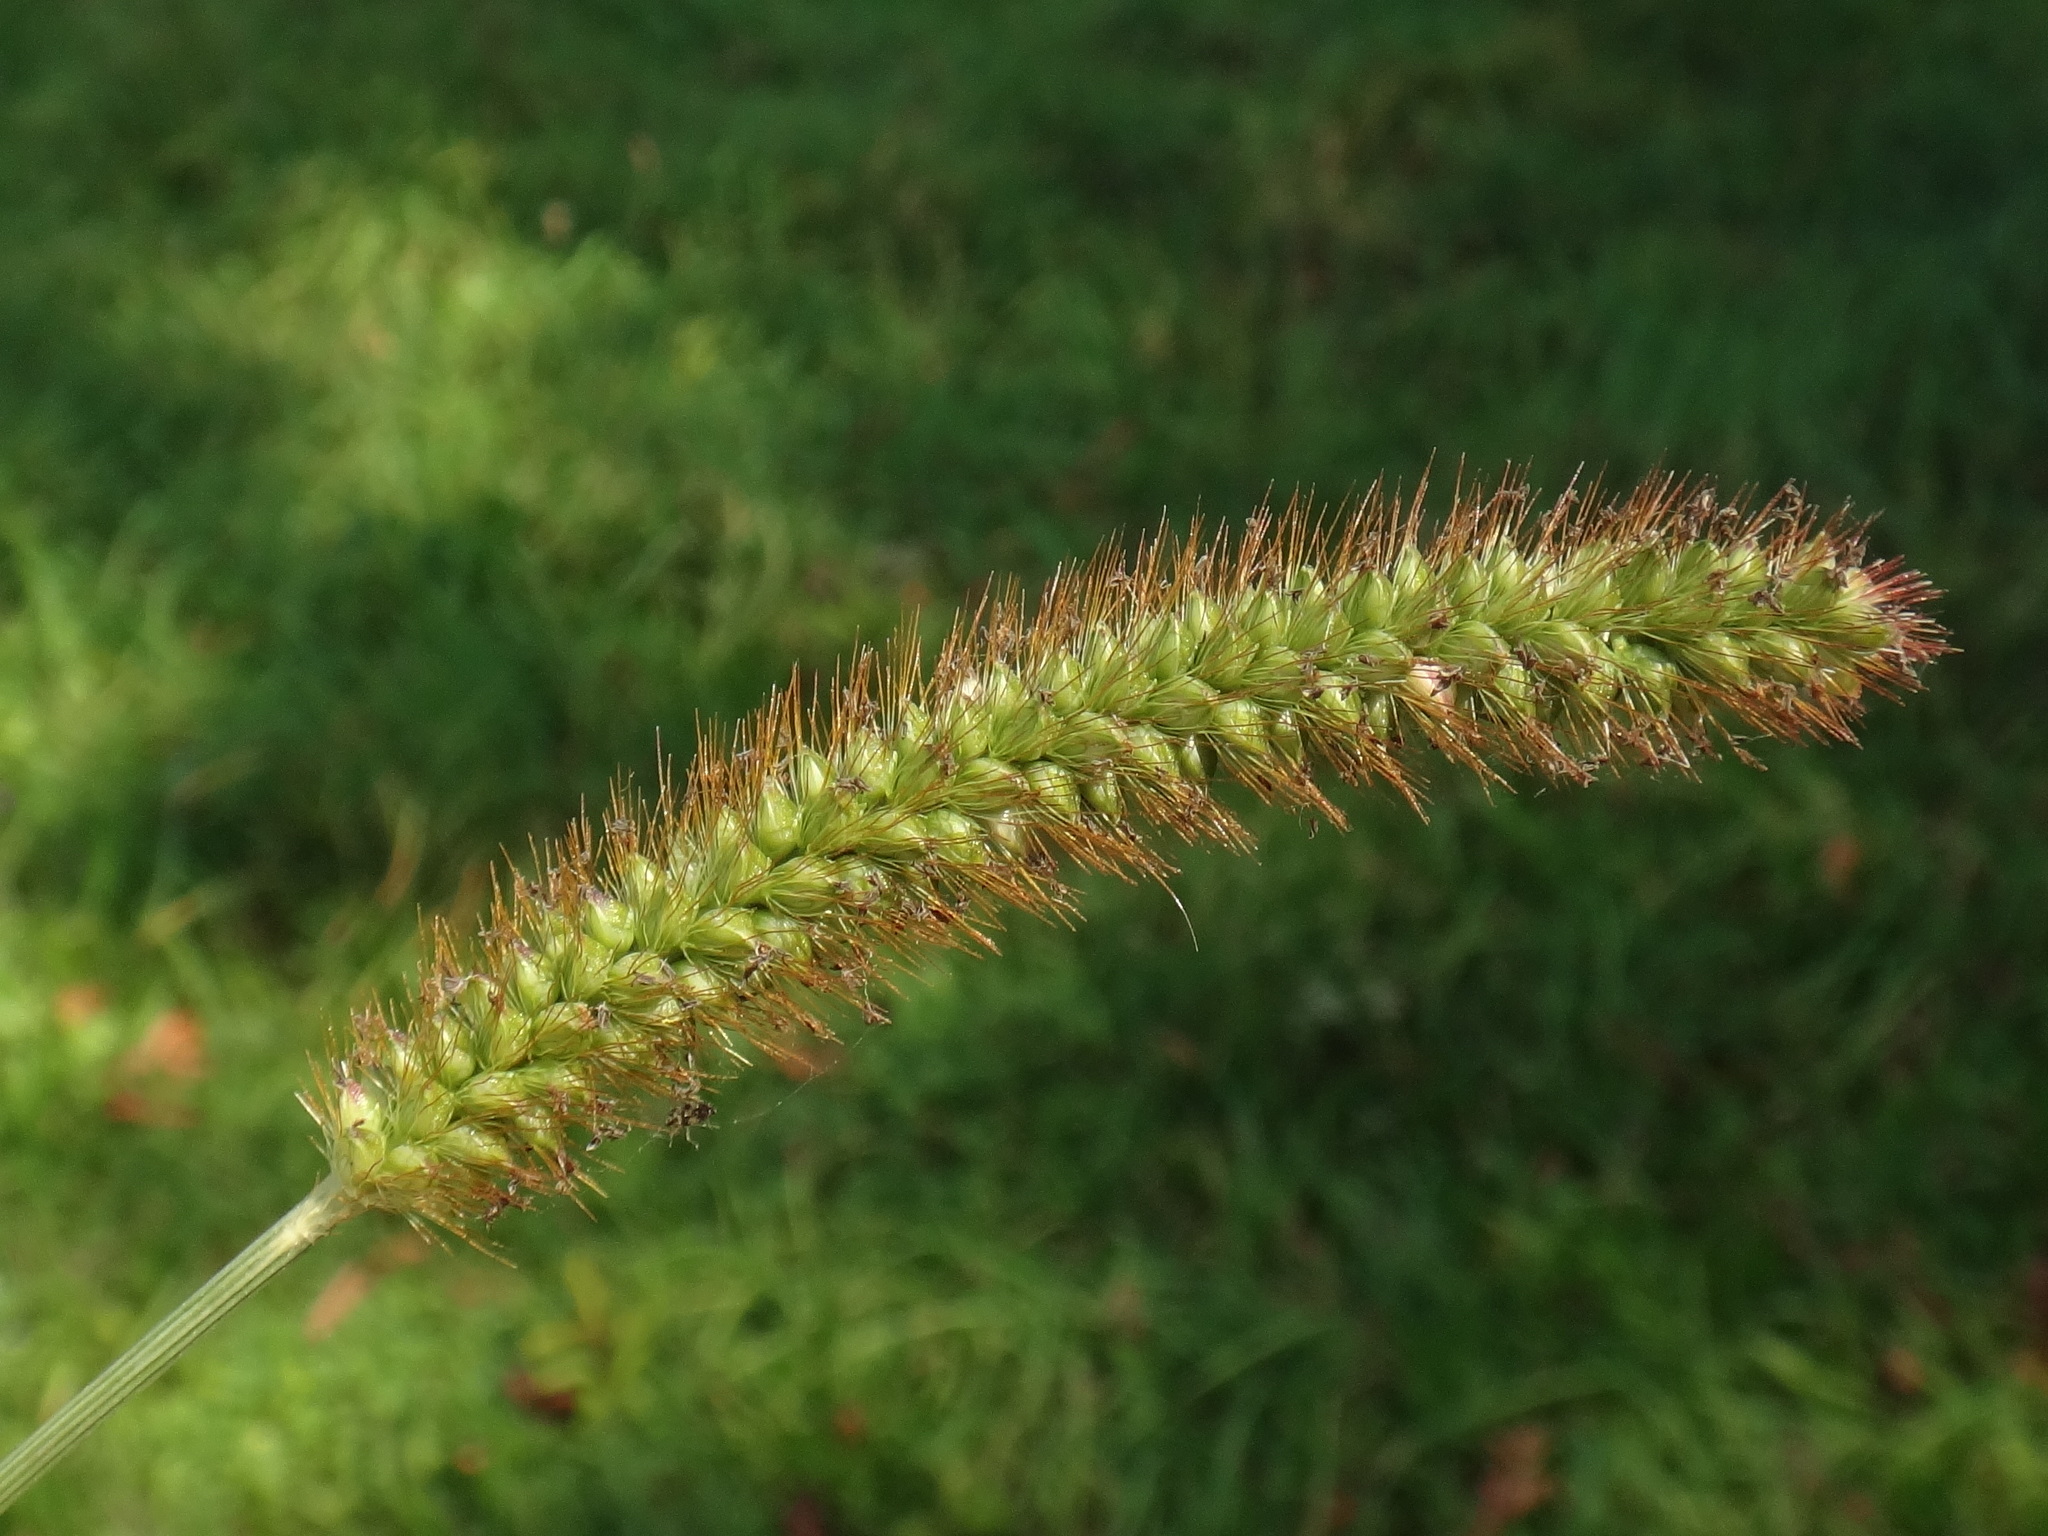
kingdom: Plantae
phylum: Tracheophyta
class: Liliopsida
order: Poales
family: Poaceae
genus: Setaria
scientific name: Setaria pumila
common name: Yellow bristle-grass
